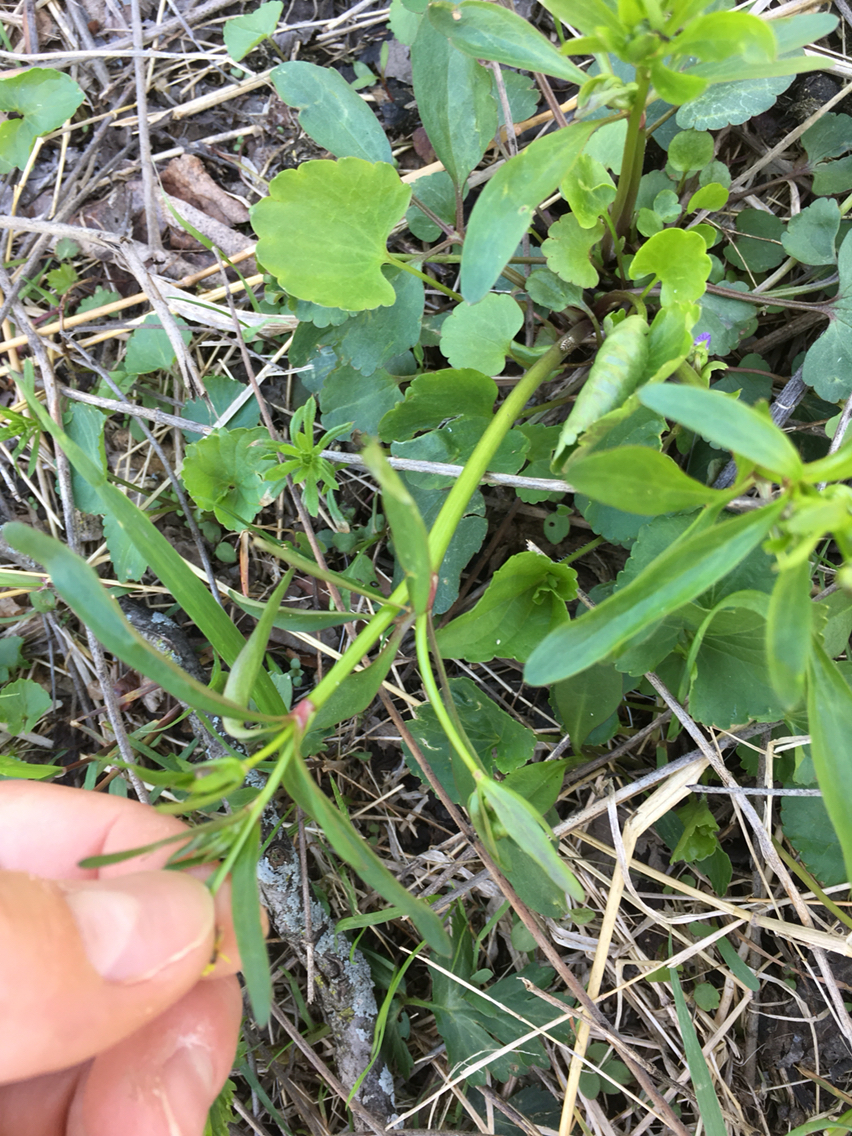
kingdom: Plantae
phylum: Tracheophyta
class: Magnoliopsida
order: Ranunculales
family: Ranunculaceae
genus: Ranunculus
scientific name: Ranunculus abortivus
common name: Early wood buttercup
